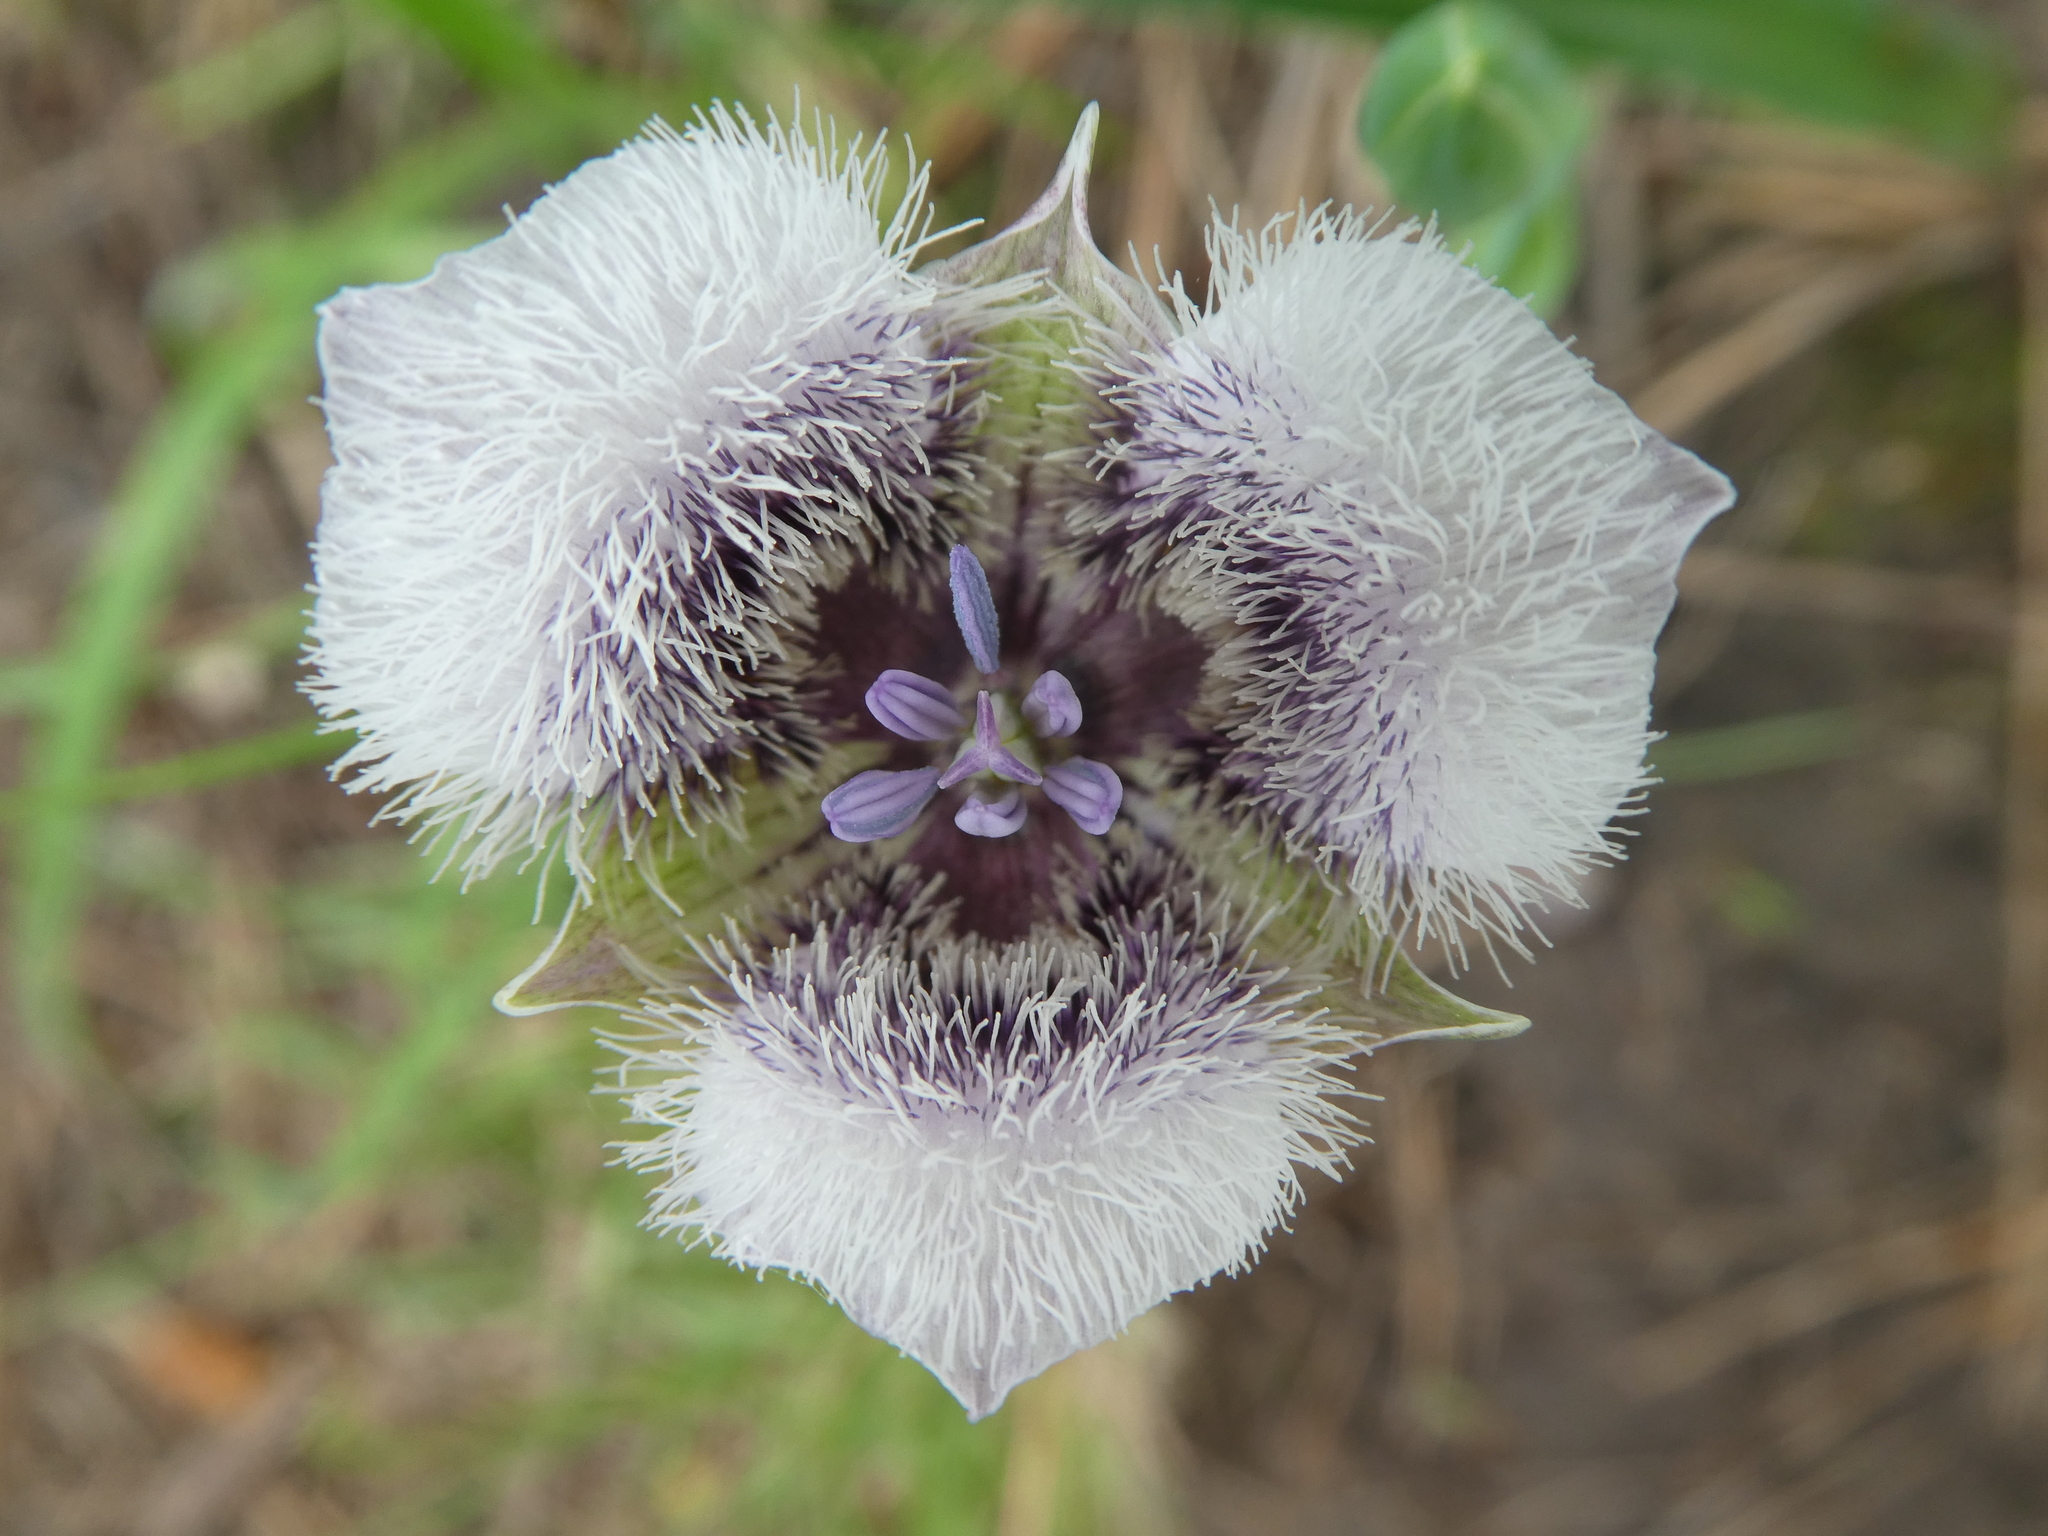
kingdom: Plantae
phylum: Tracheophyta
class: Liliopsida
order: Liliales
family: Liliaceae
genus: Calochortus
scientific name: Calochortus tolmiei
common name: Pussy-ears
